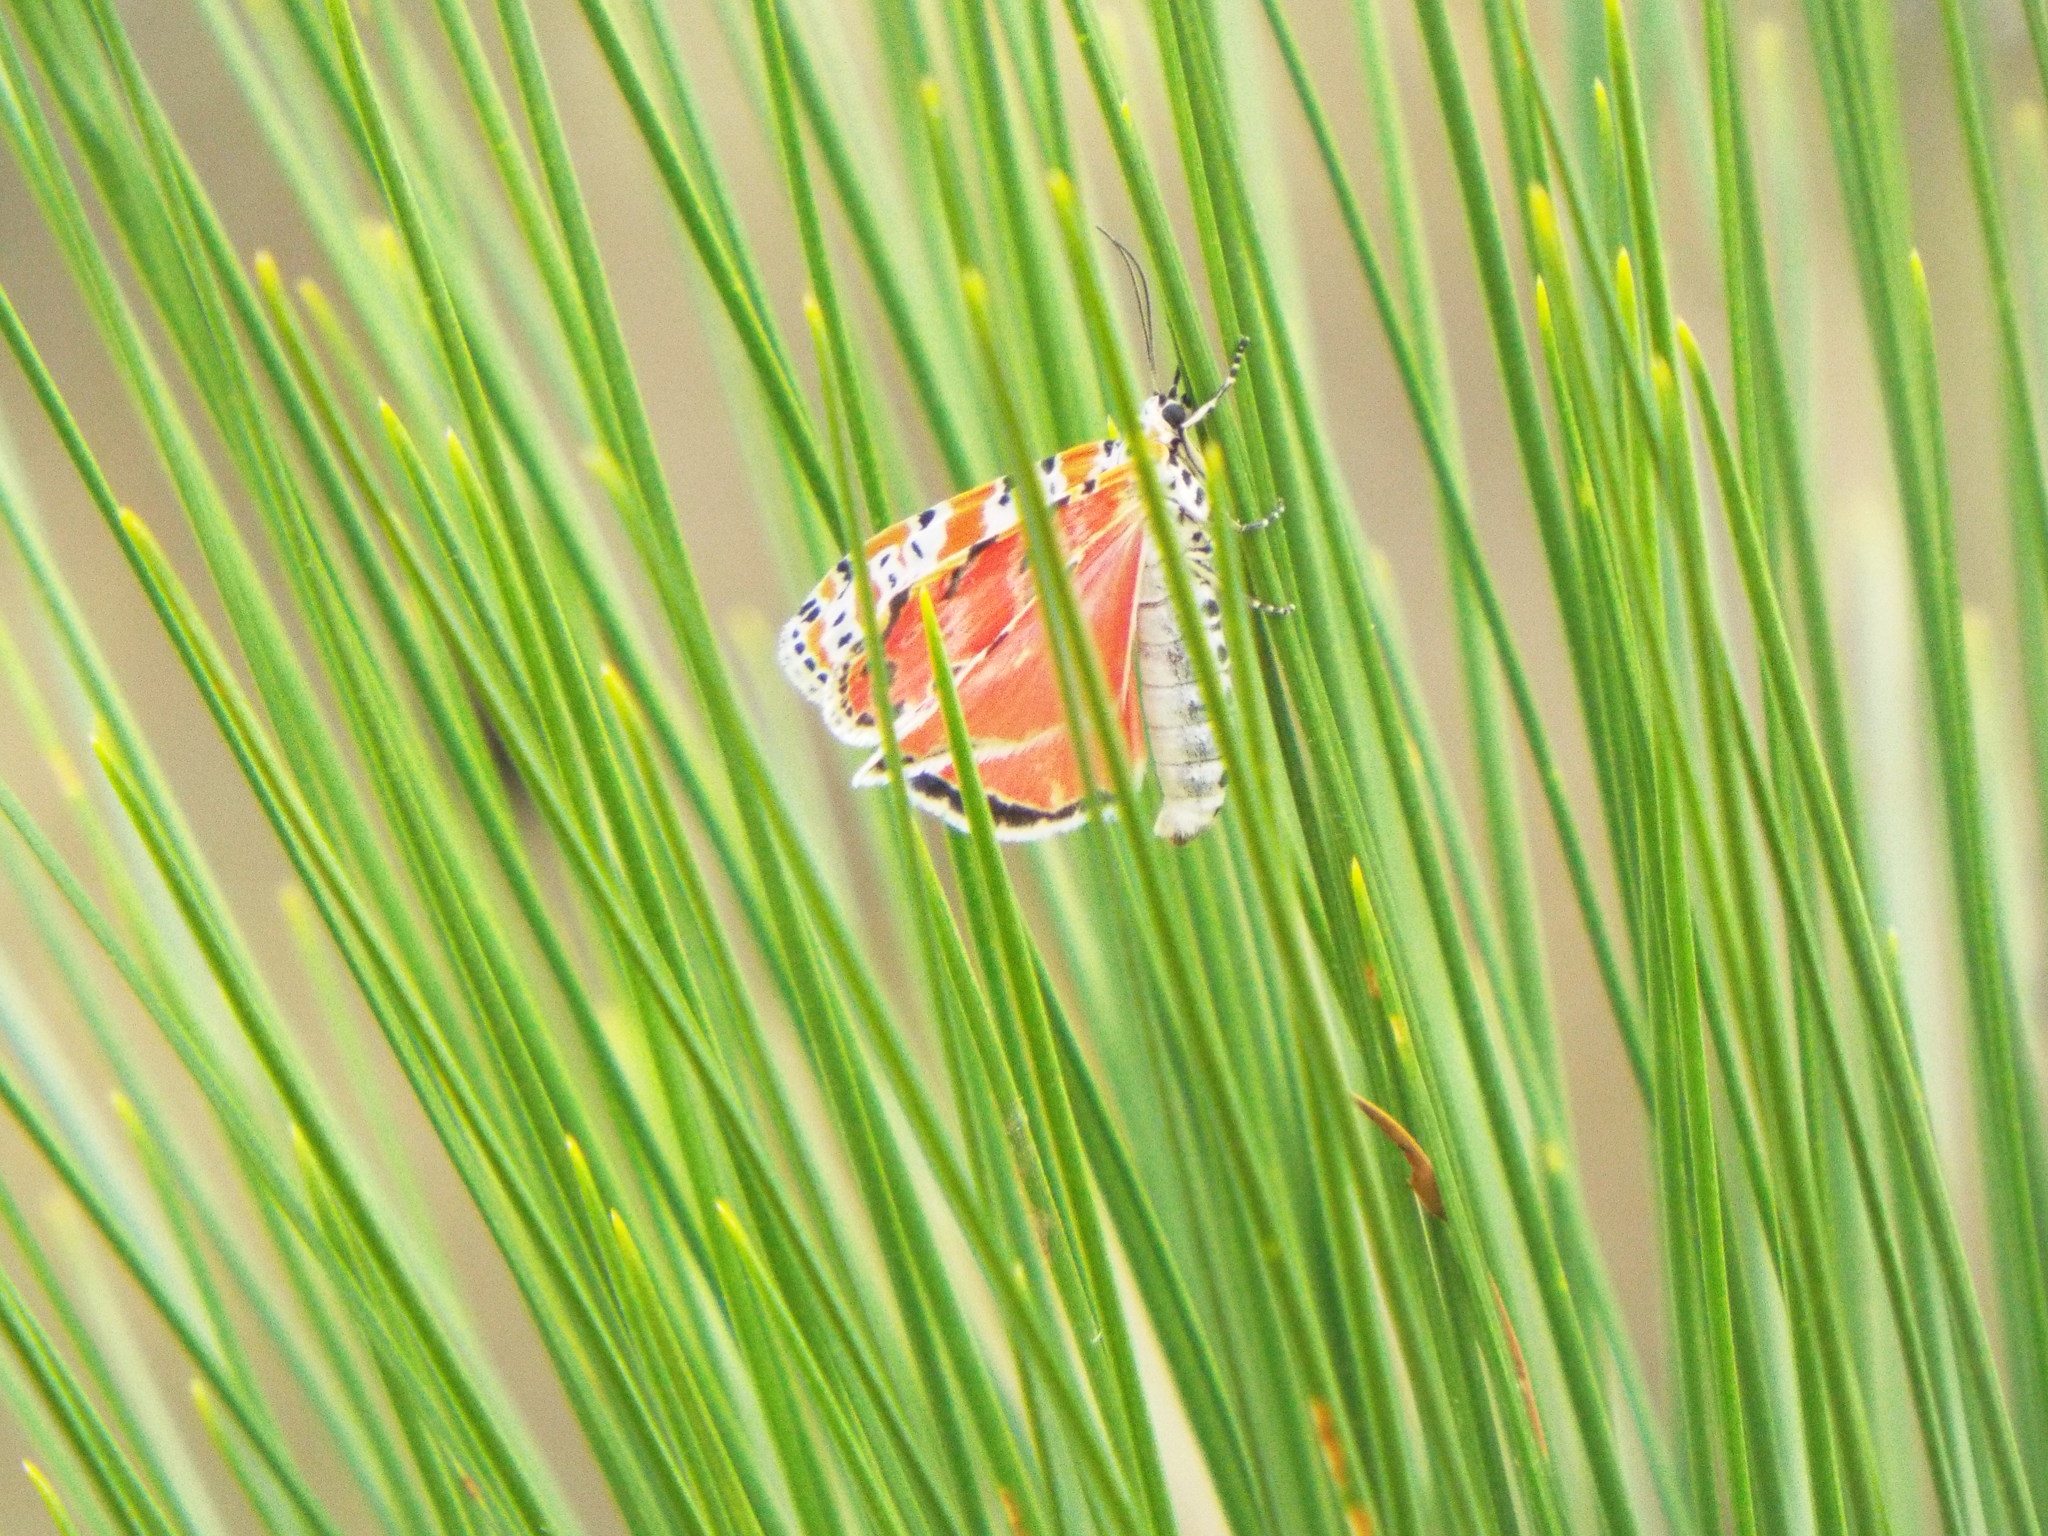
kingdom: Animalia
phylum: Arthropoda
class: Insecta
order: Lepidoptera
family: Erebidae
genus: Utetheisa
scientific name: Utetheisa ornatrix
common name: Beautiful utetheisa
